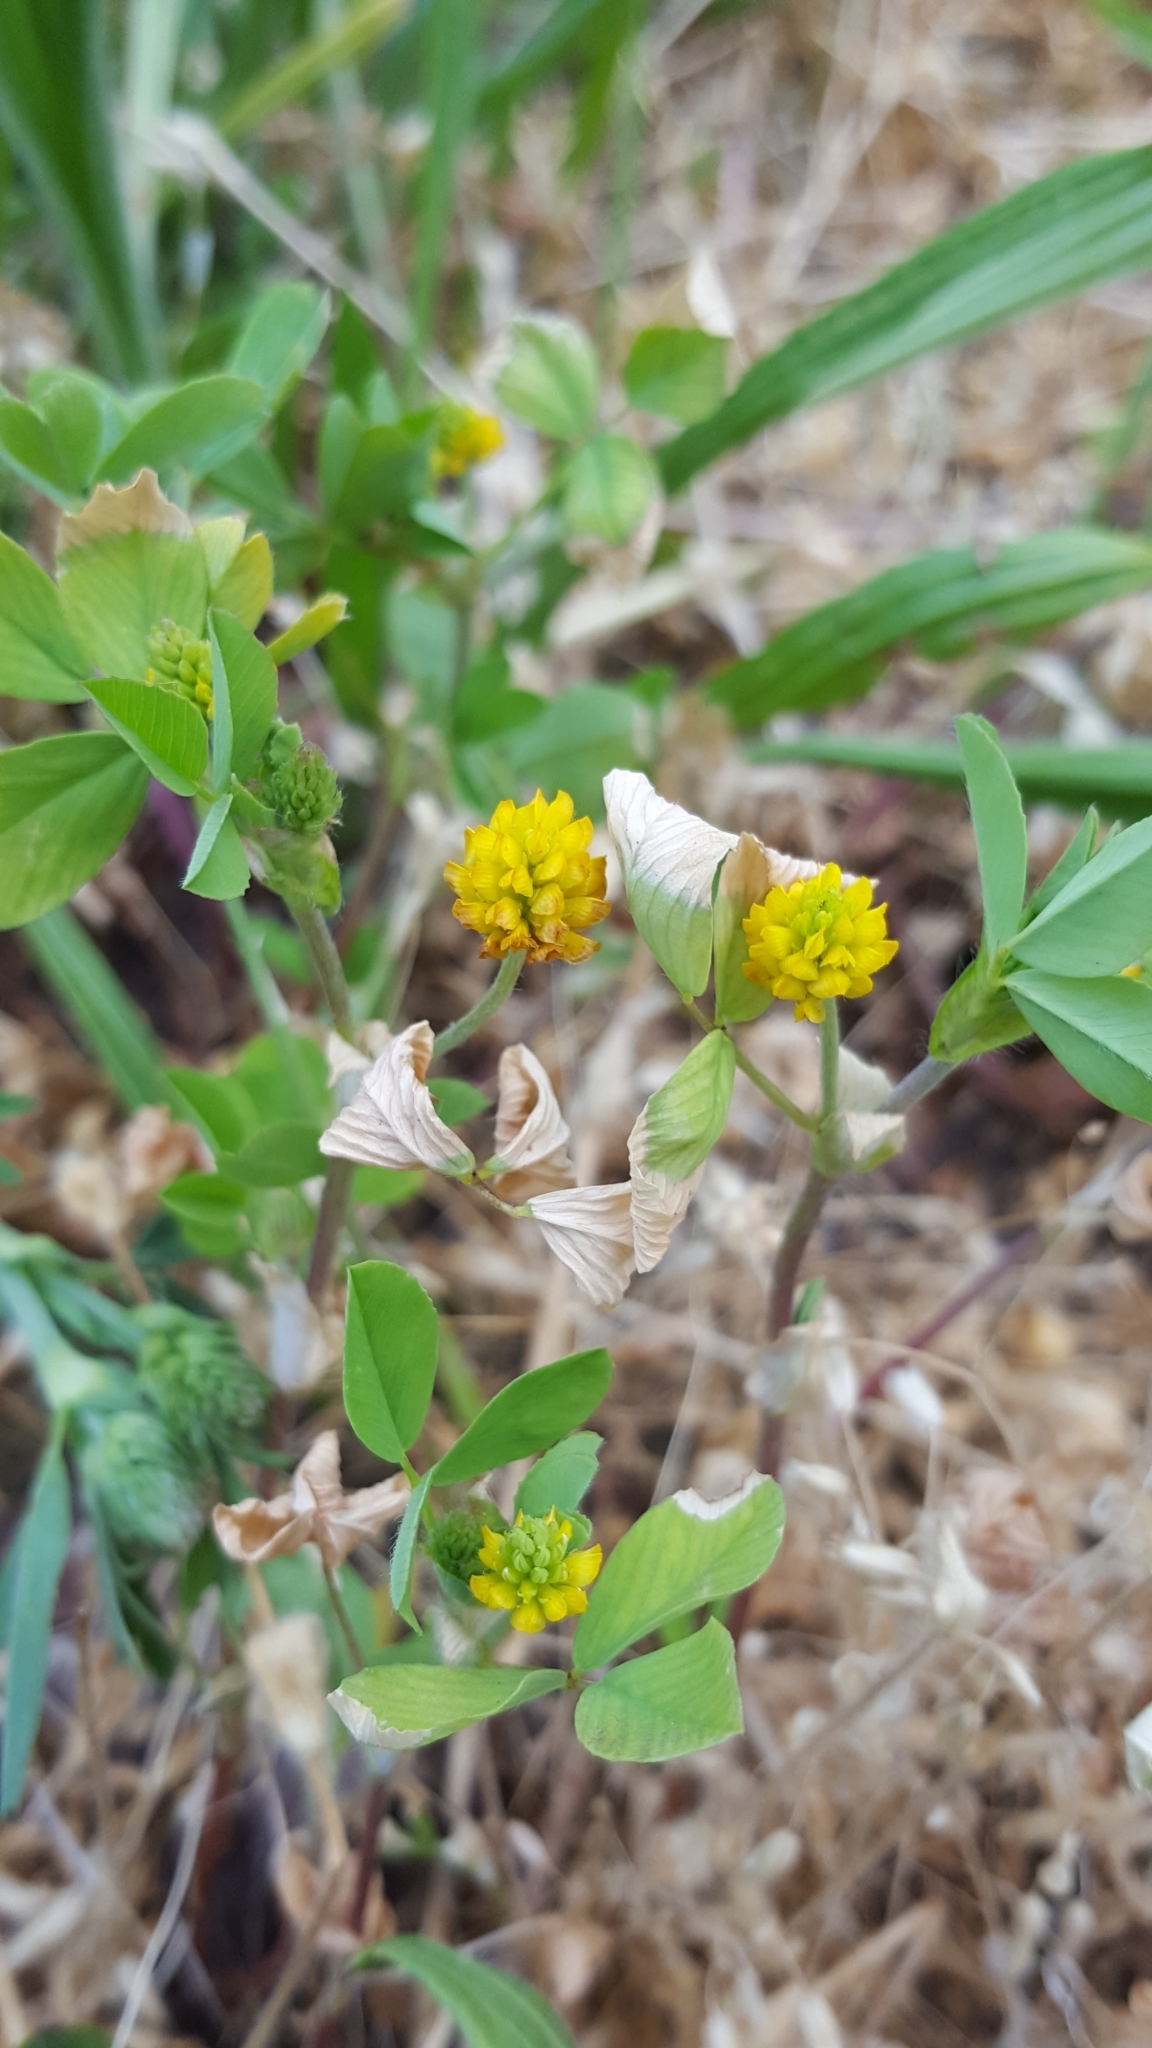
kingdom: Plantae
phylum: Tracheophyta
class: Magnoliopsida
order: Fabales
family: Fabaceae
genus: Trifolium
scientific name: Trifolium campestre
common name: Field clover
